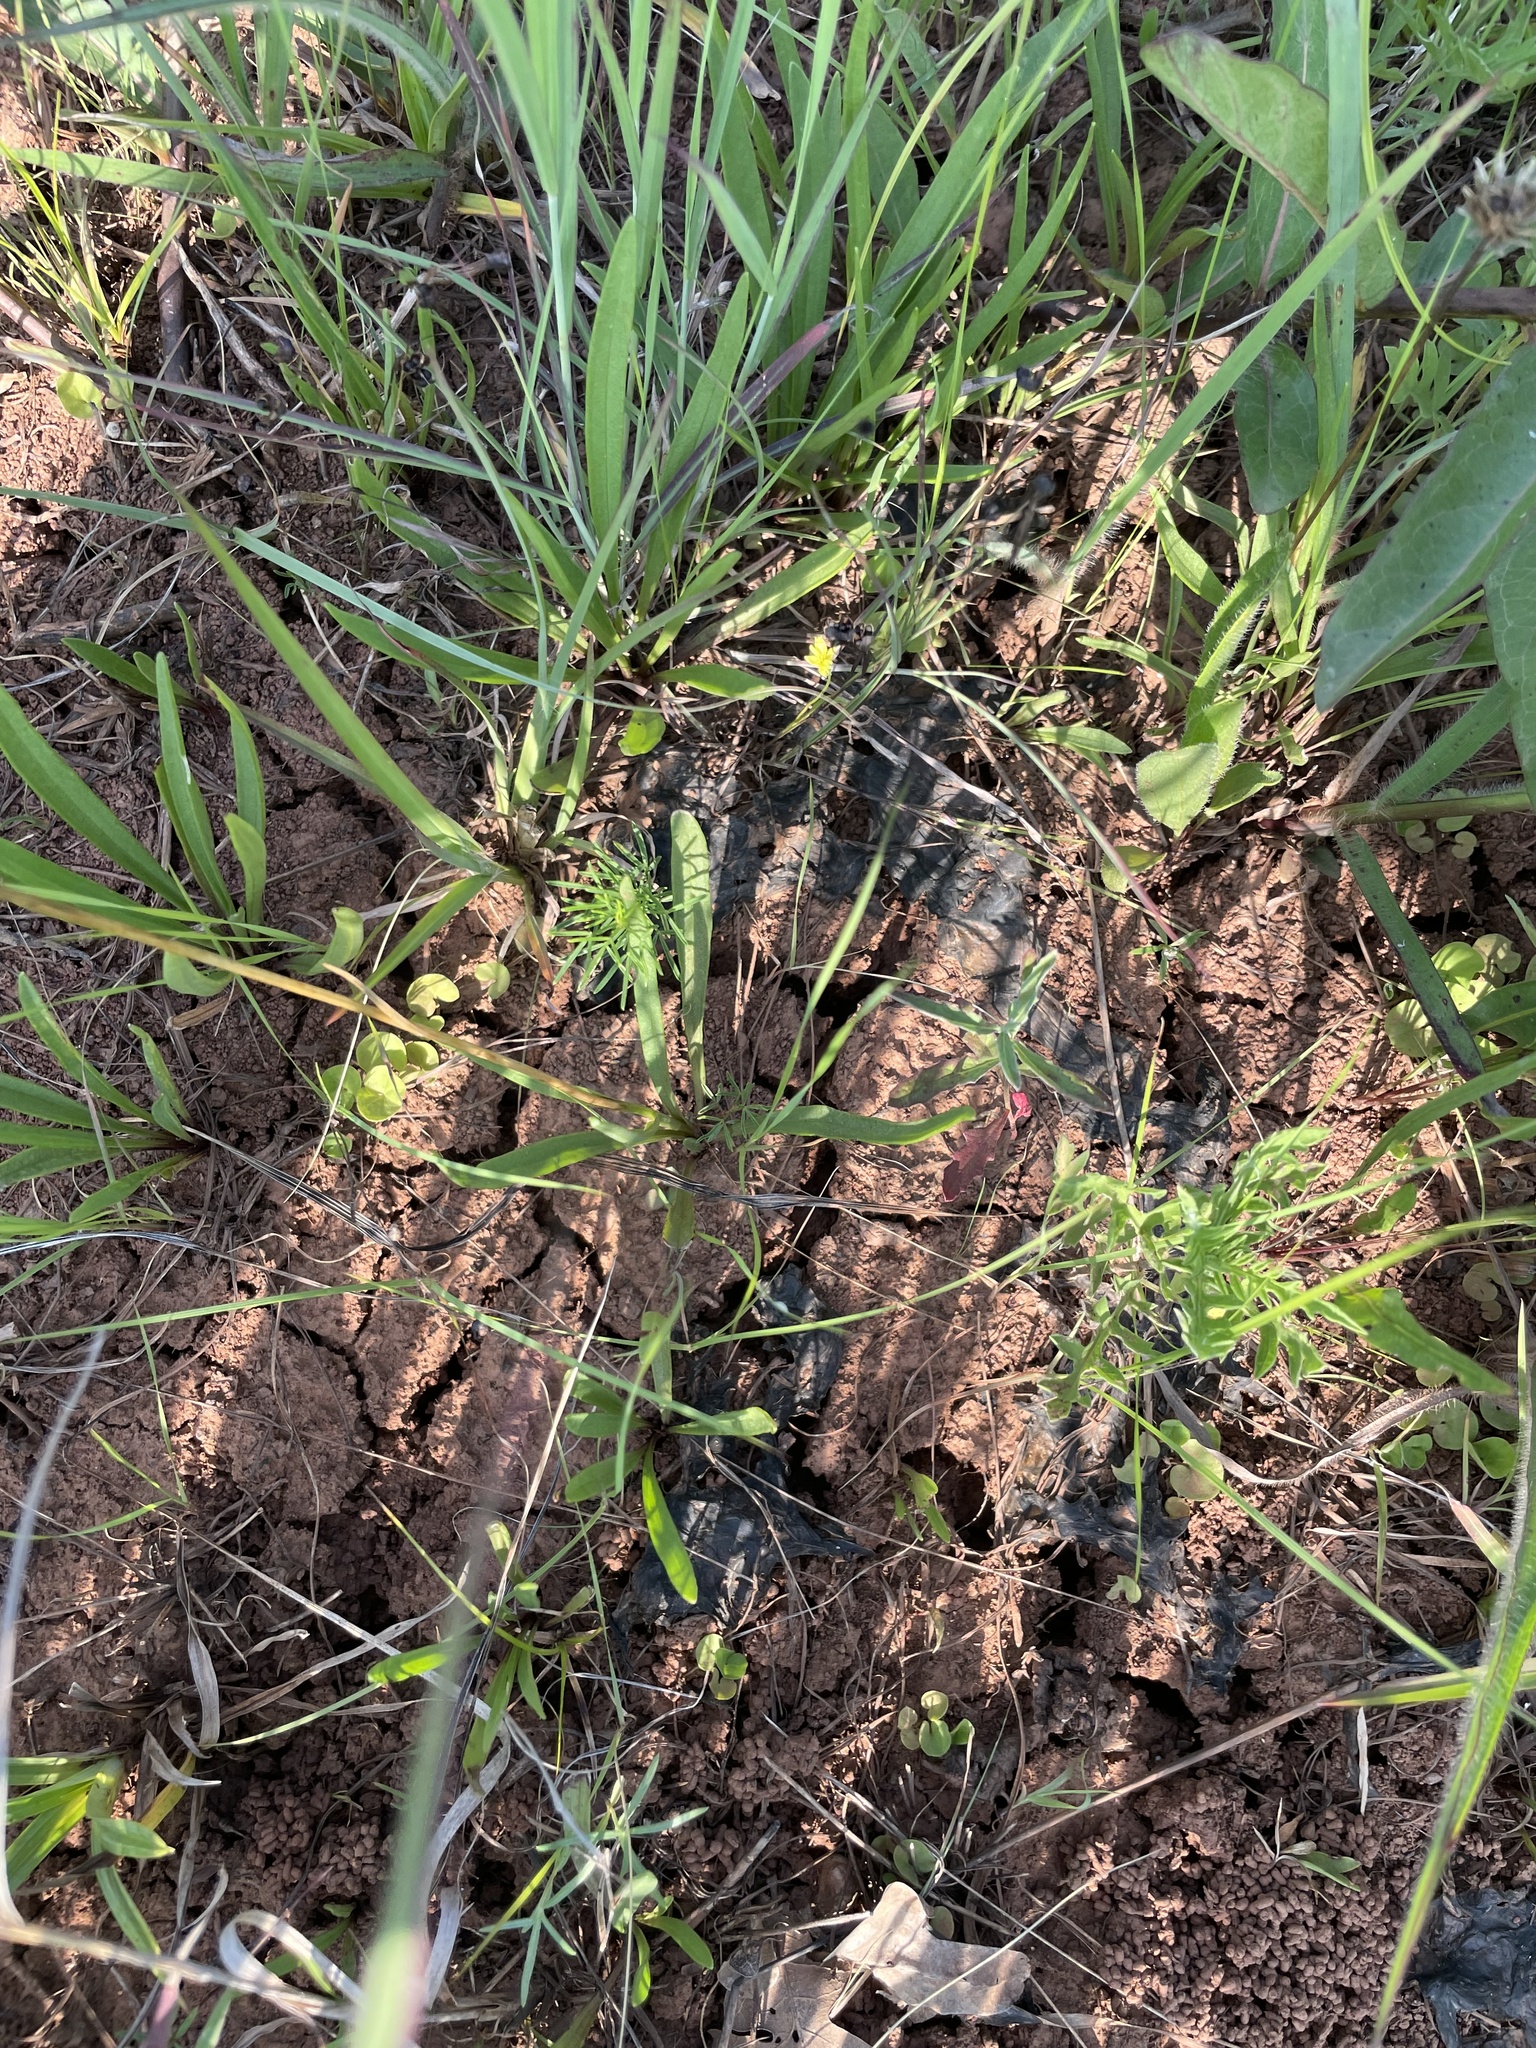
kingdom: Plantae
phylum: Tracheophyta
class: Magnoliopsida
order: Asterales
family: Asteraceae
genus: Marshallia
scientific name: Marshallia caespitosa
